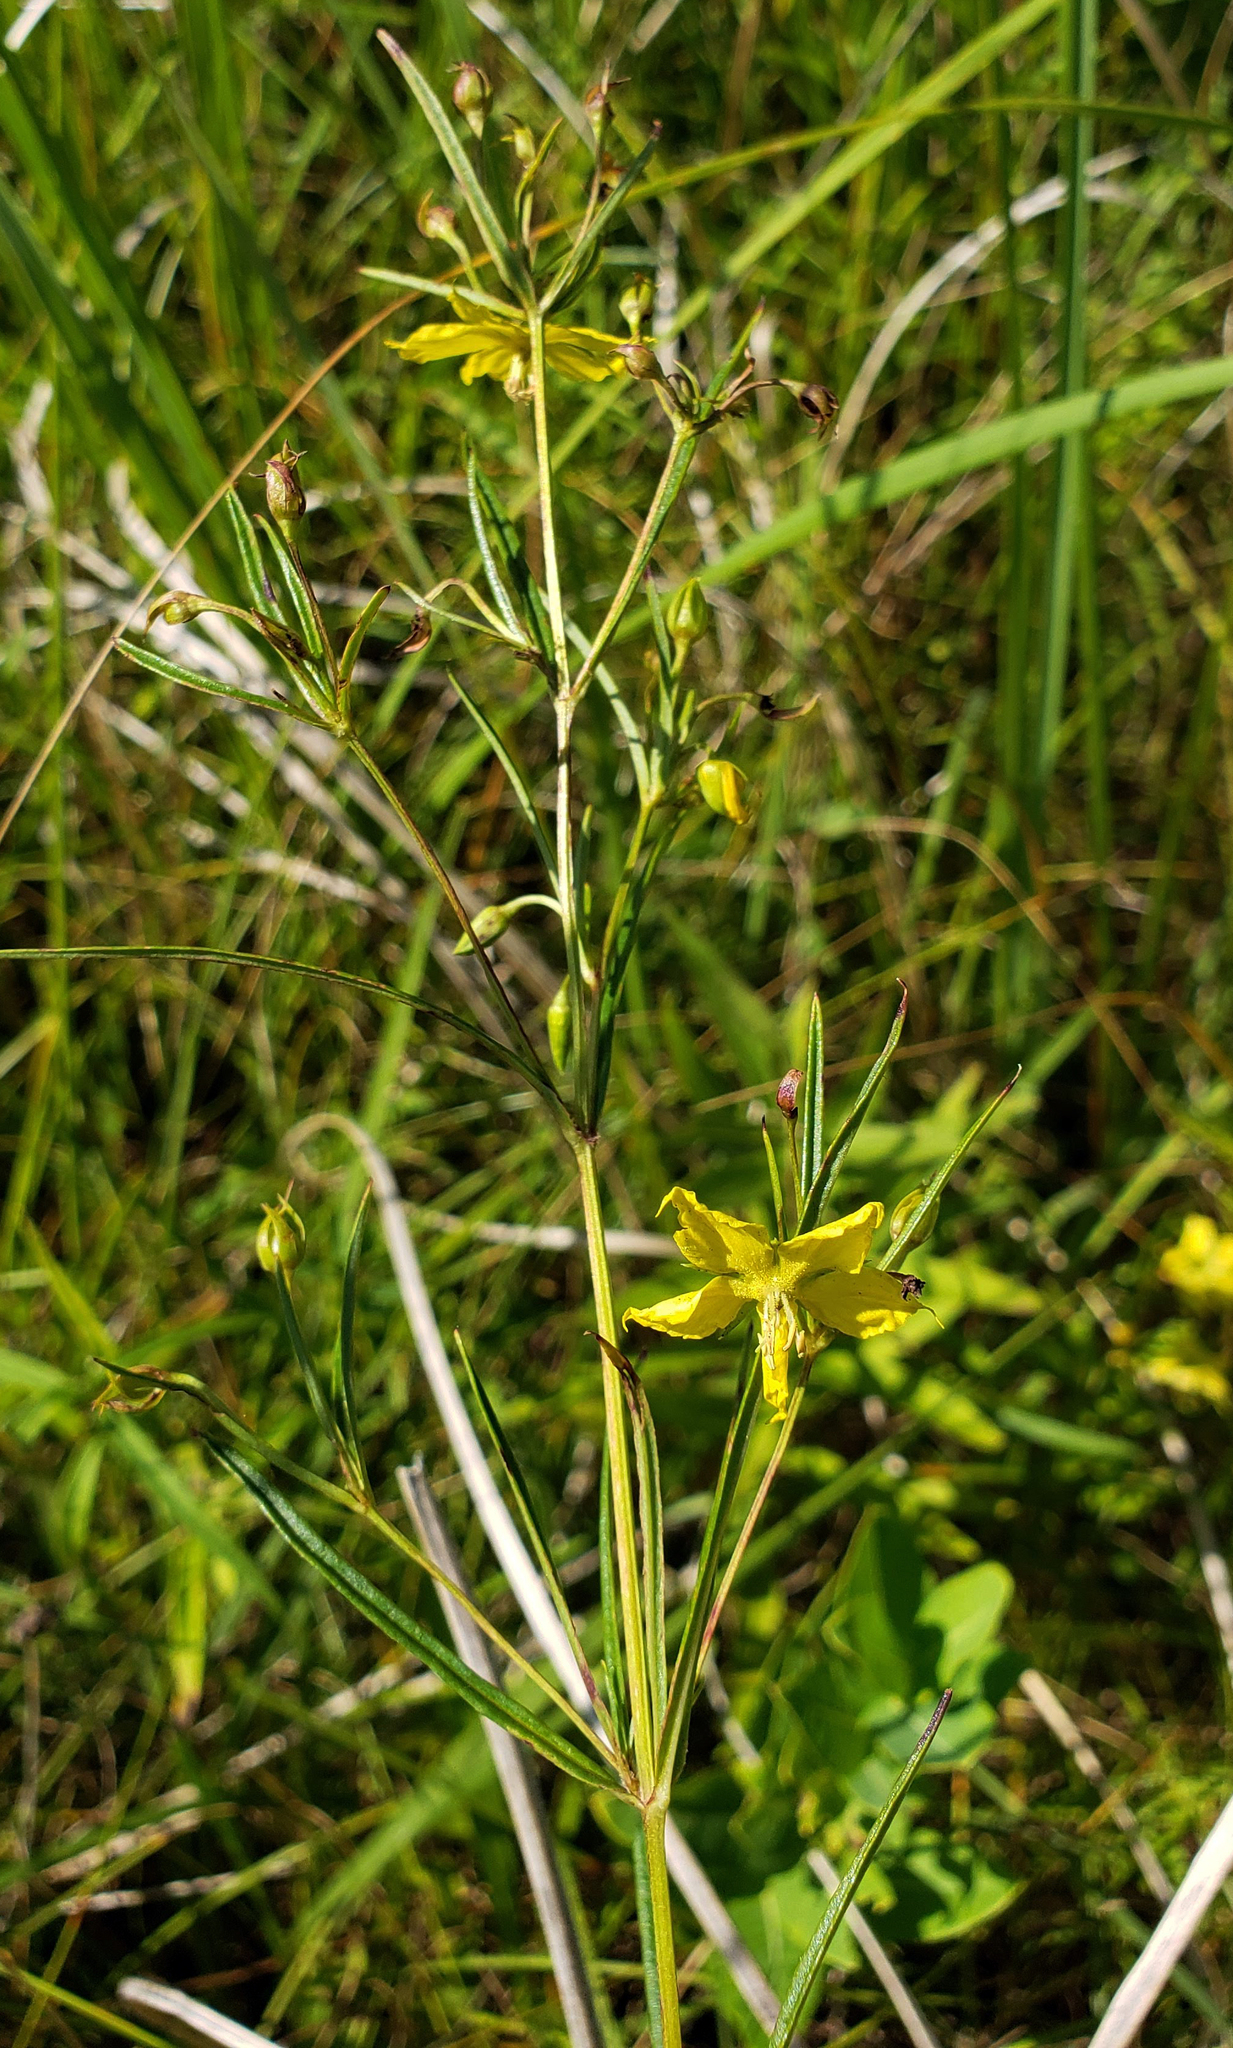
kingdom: Plantae
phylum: Tracheophyta
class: Magnoliopsida
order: Ericales
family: Primulaceae
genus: Lysimachia
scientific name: Lysimachia quadriflora
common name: Four-flowered loosestrife
